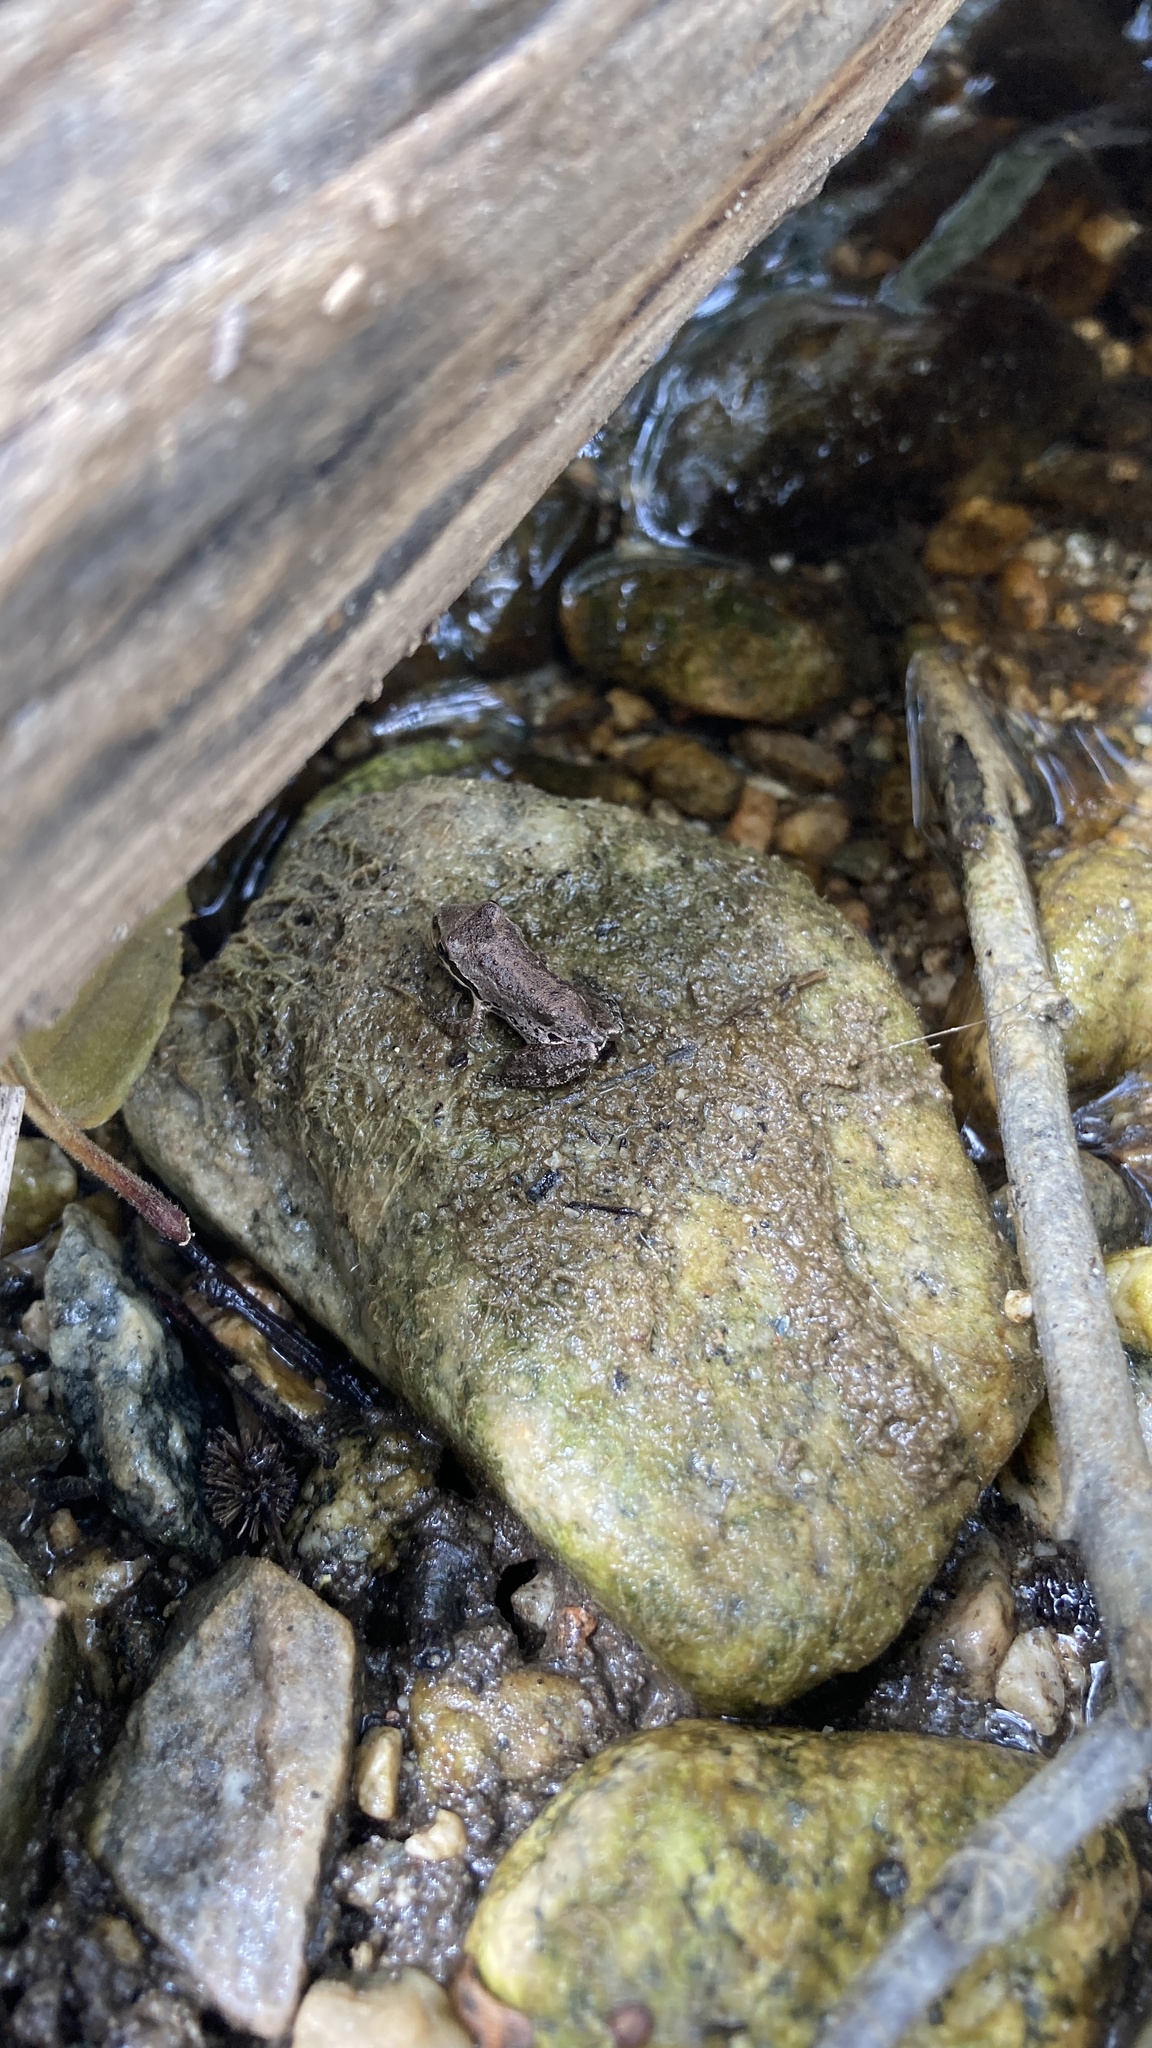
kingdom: Animalia
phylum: Chordata
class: Amphibia
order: Anura
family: Hylidae
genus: Pseudacris
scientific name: Pseudacris regilla
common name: Pacific chorus frog
